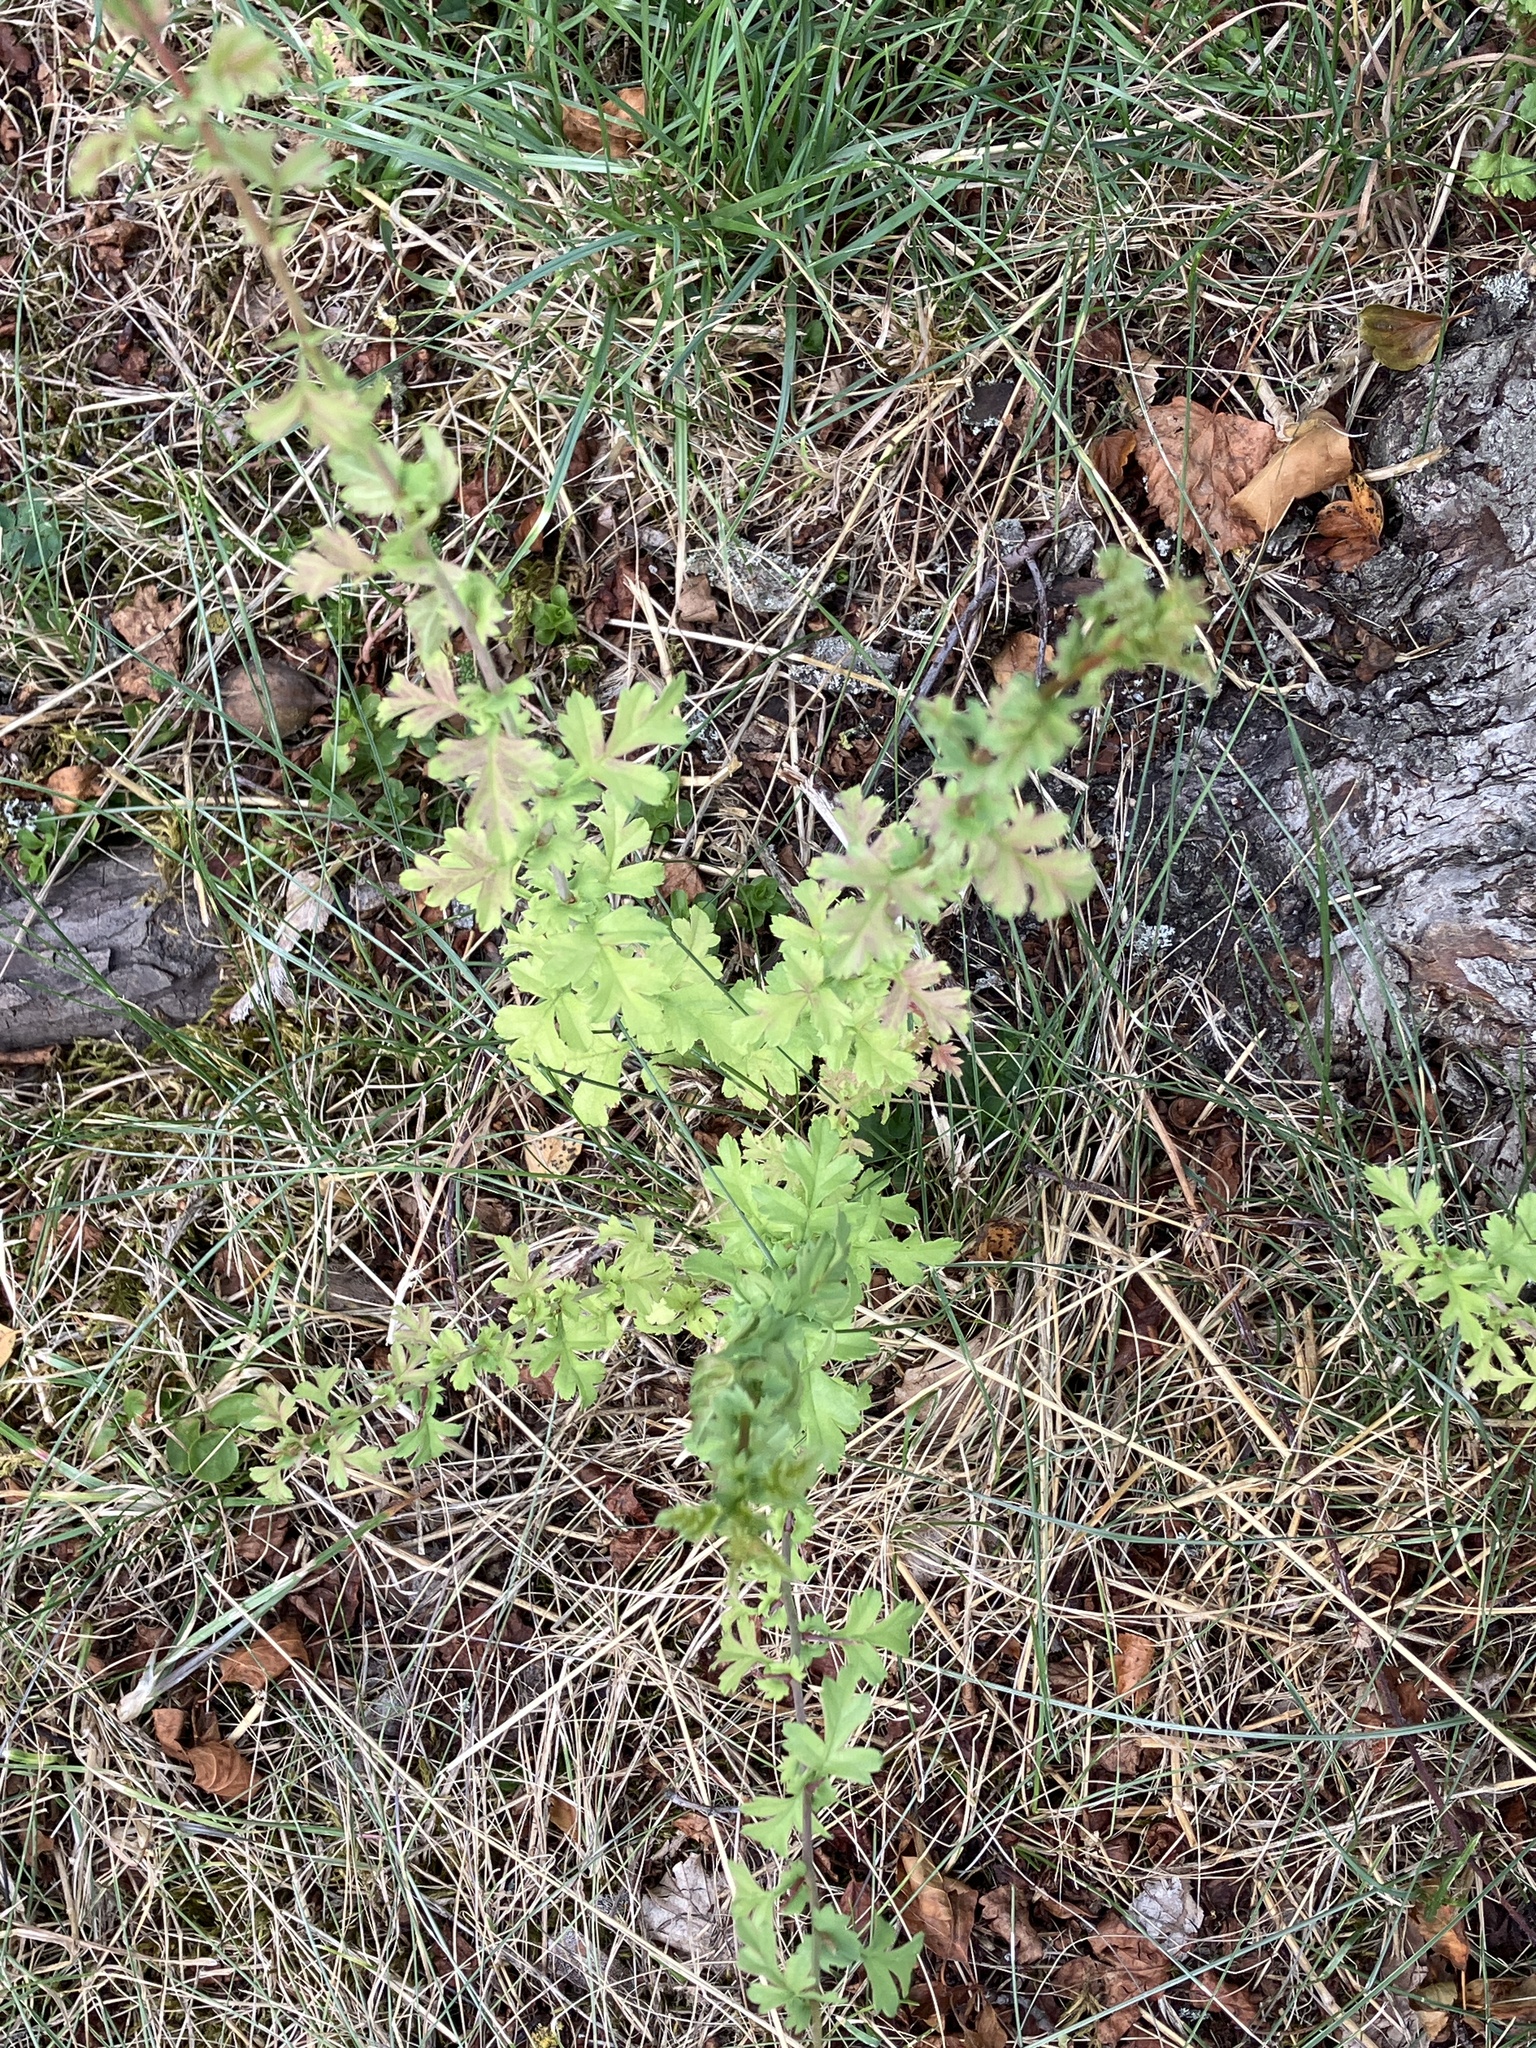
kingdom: Plantae
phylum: Tracheophyta
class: Magnoliopsida
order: Rosales
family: Rosaceae
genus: Crataegus
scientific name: Crataegus monogyna
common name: Hawthorn
